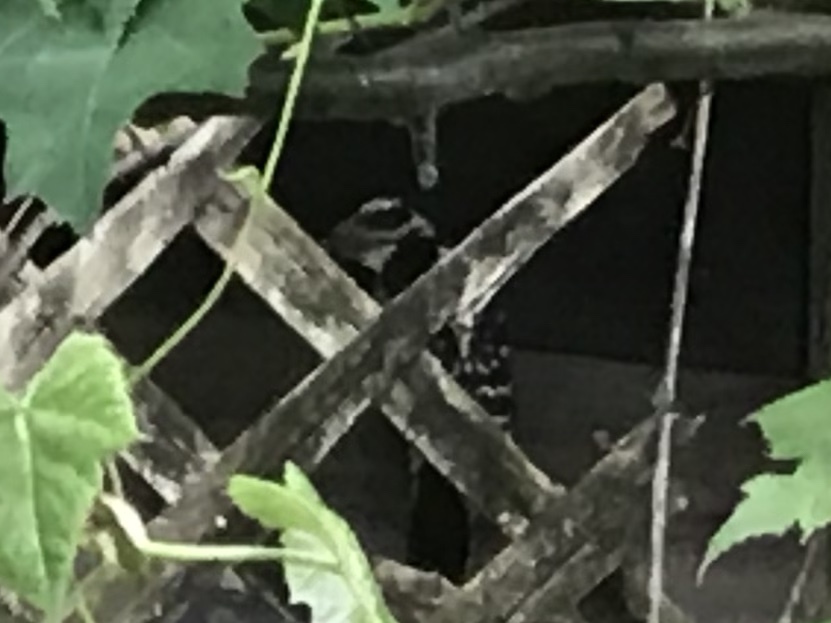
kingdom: Animalia
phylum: Chordata
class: Aves
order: Piciformes
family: Picidae
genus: Dryobates
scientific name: Dryobates pubescens
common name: Downy woodpecker
